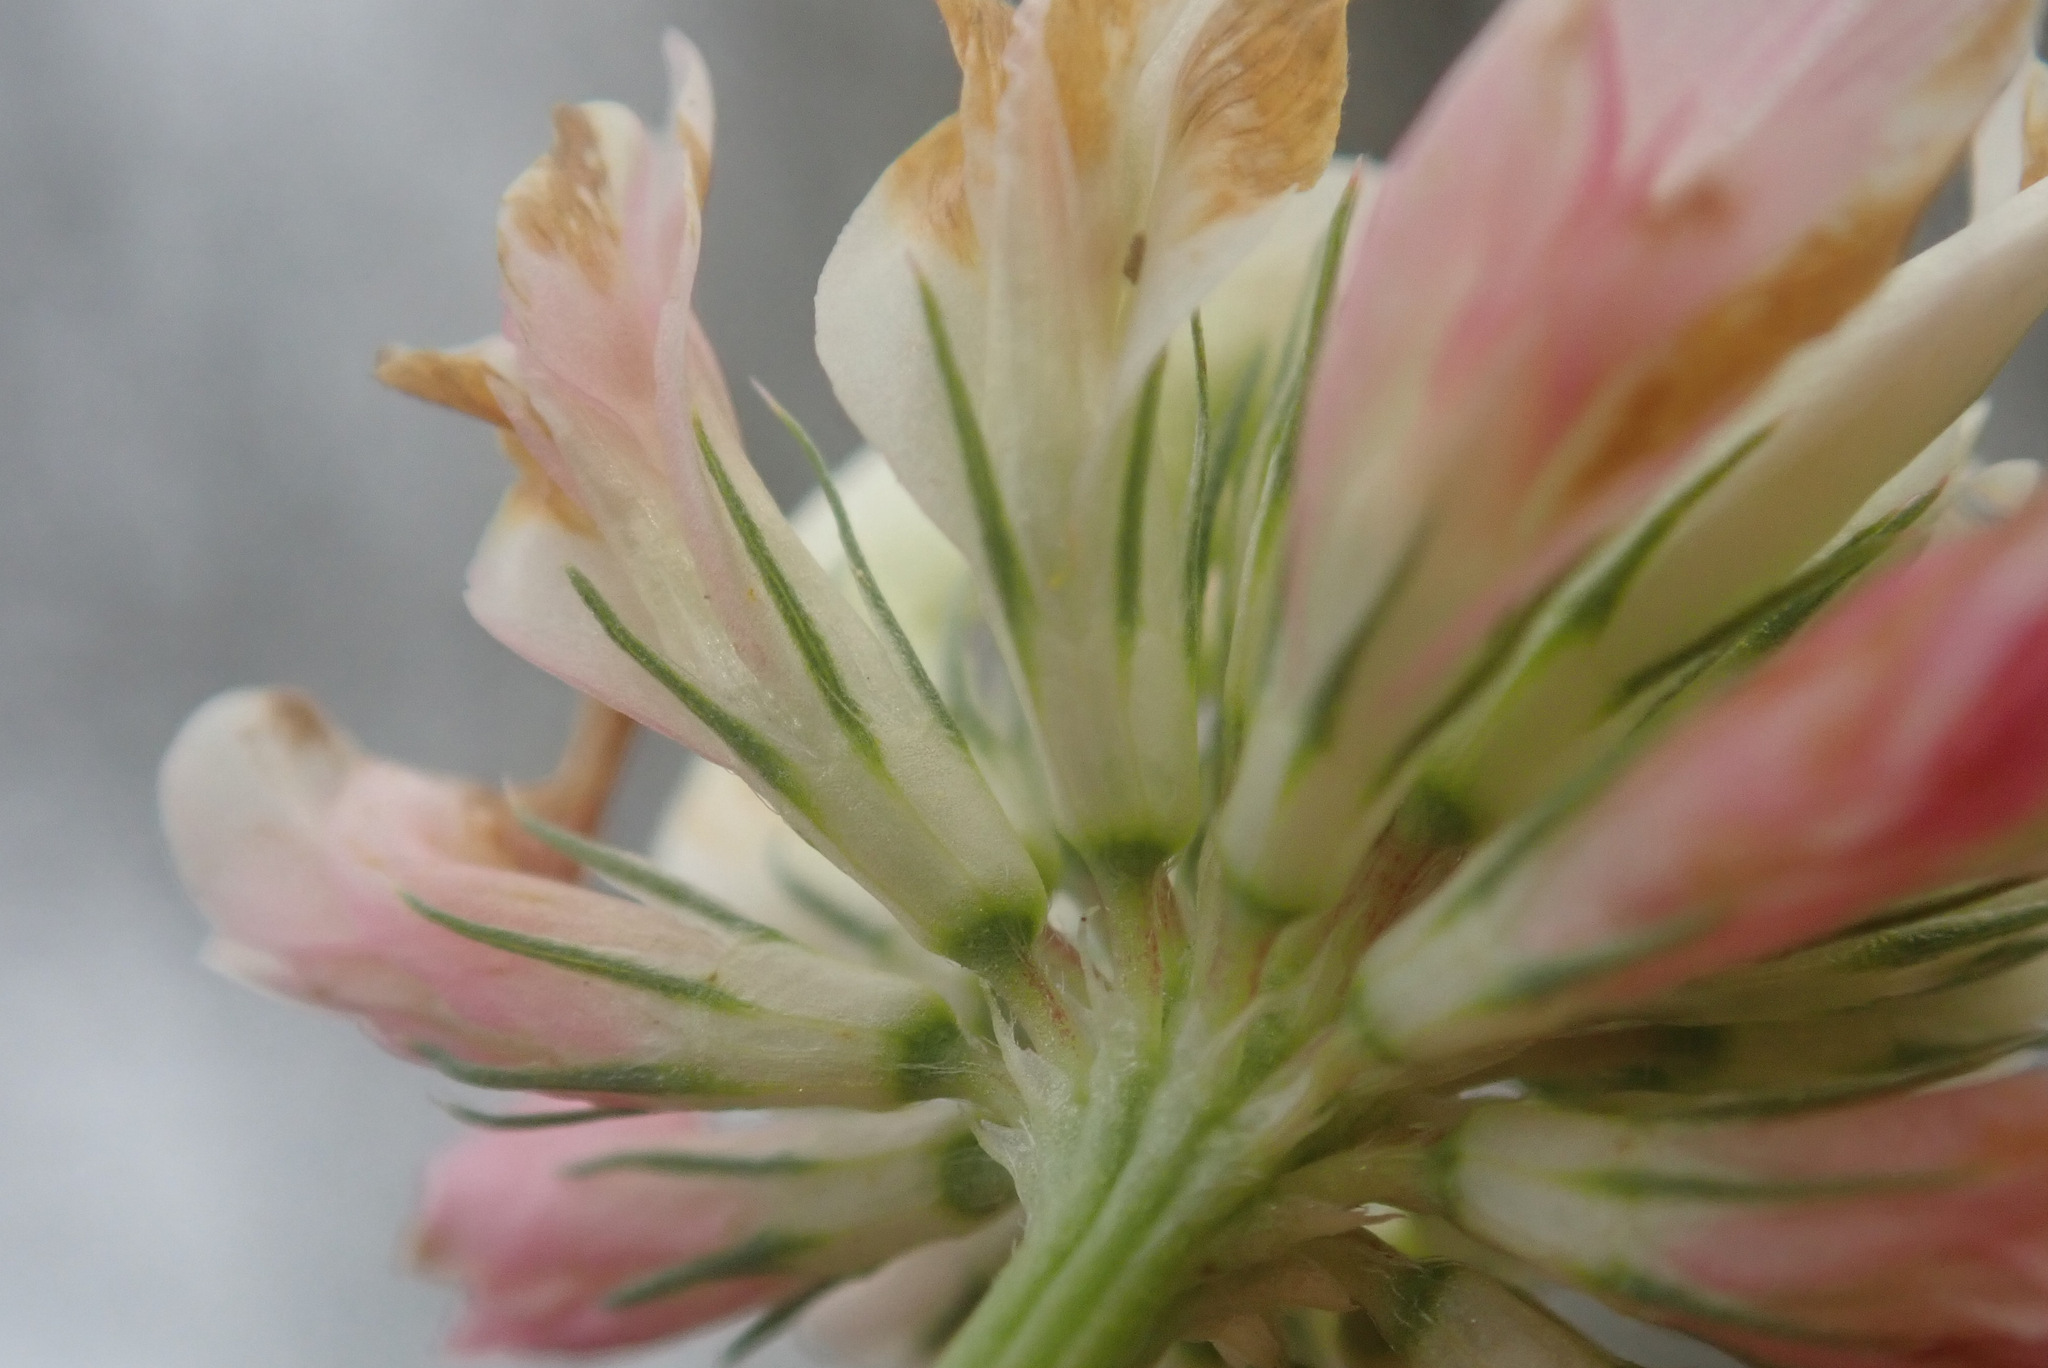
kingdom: Plantae
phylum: Tracheophyta
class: Magnoliopsida
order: Fabales
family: Fabaceae
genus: Trifolium
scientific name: Trifolium hybridum
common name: Alsike clover
